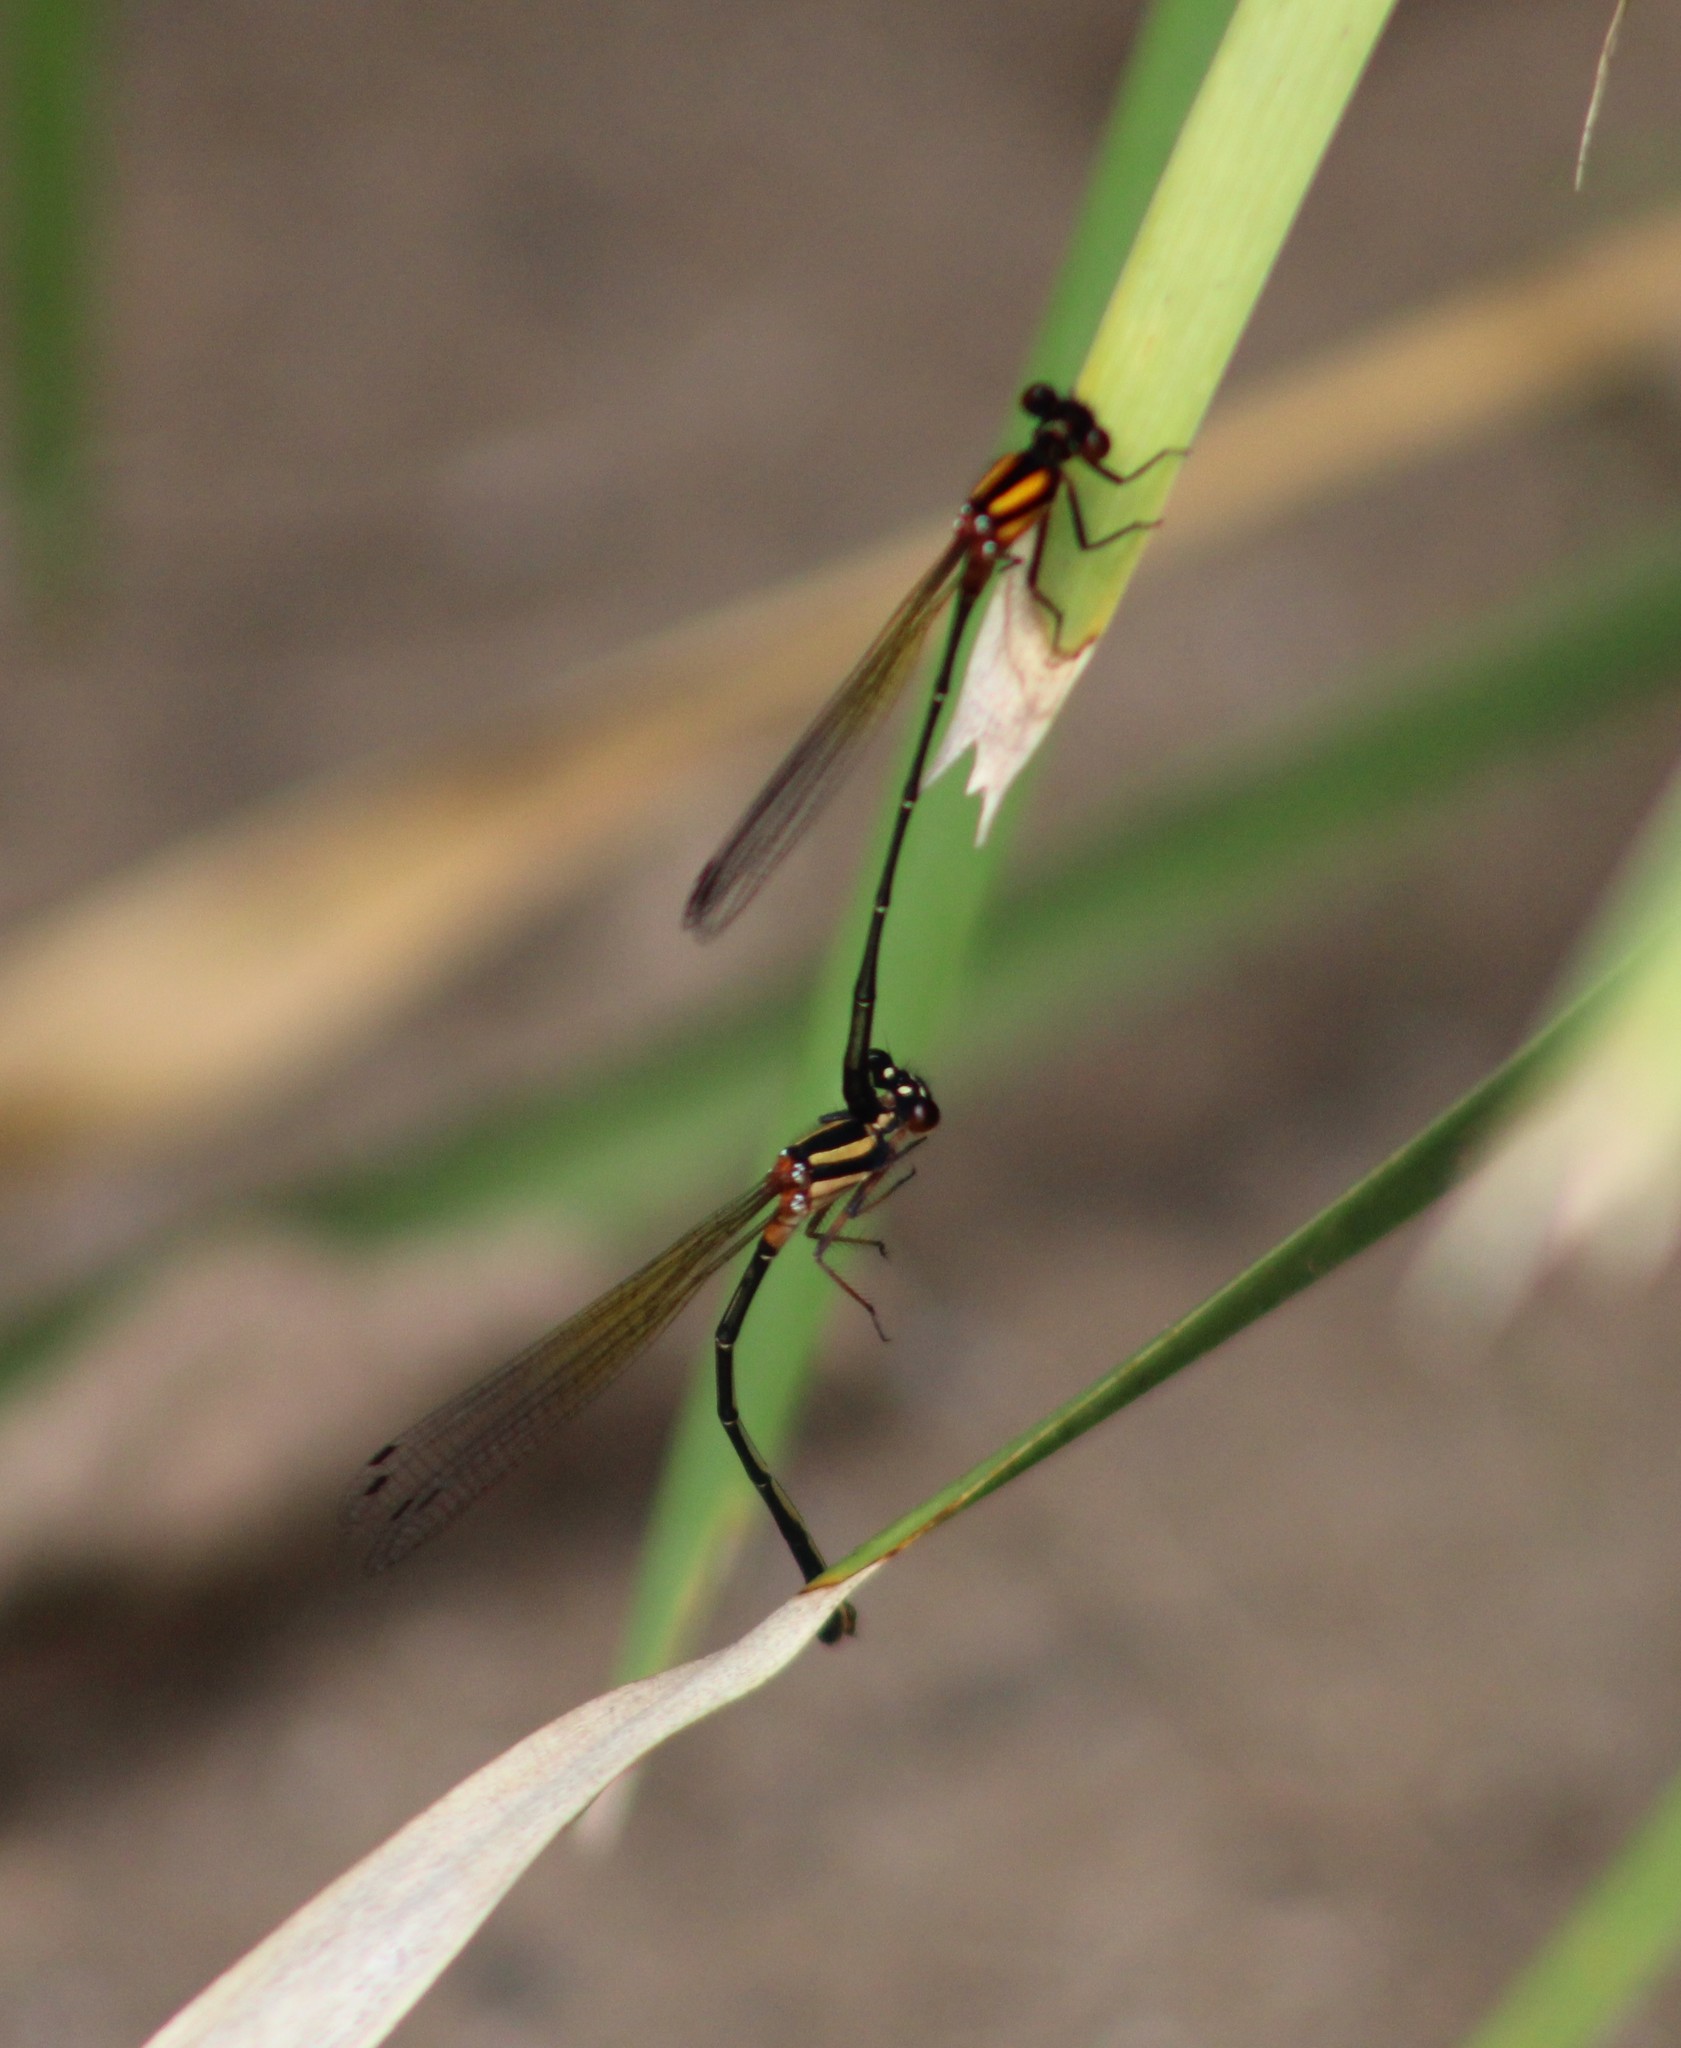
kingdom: Animalia
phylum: Arthropoda
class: Insecta
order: Odonata
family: Platycnemididae
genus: Nososticta
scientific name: Nososticta solida
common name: Orange threadtail
